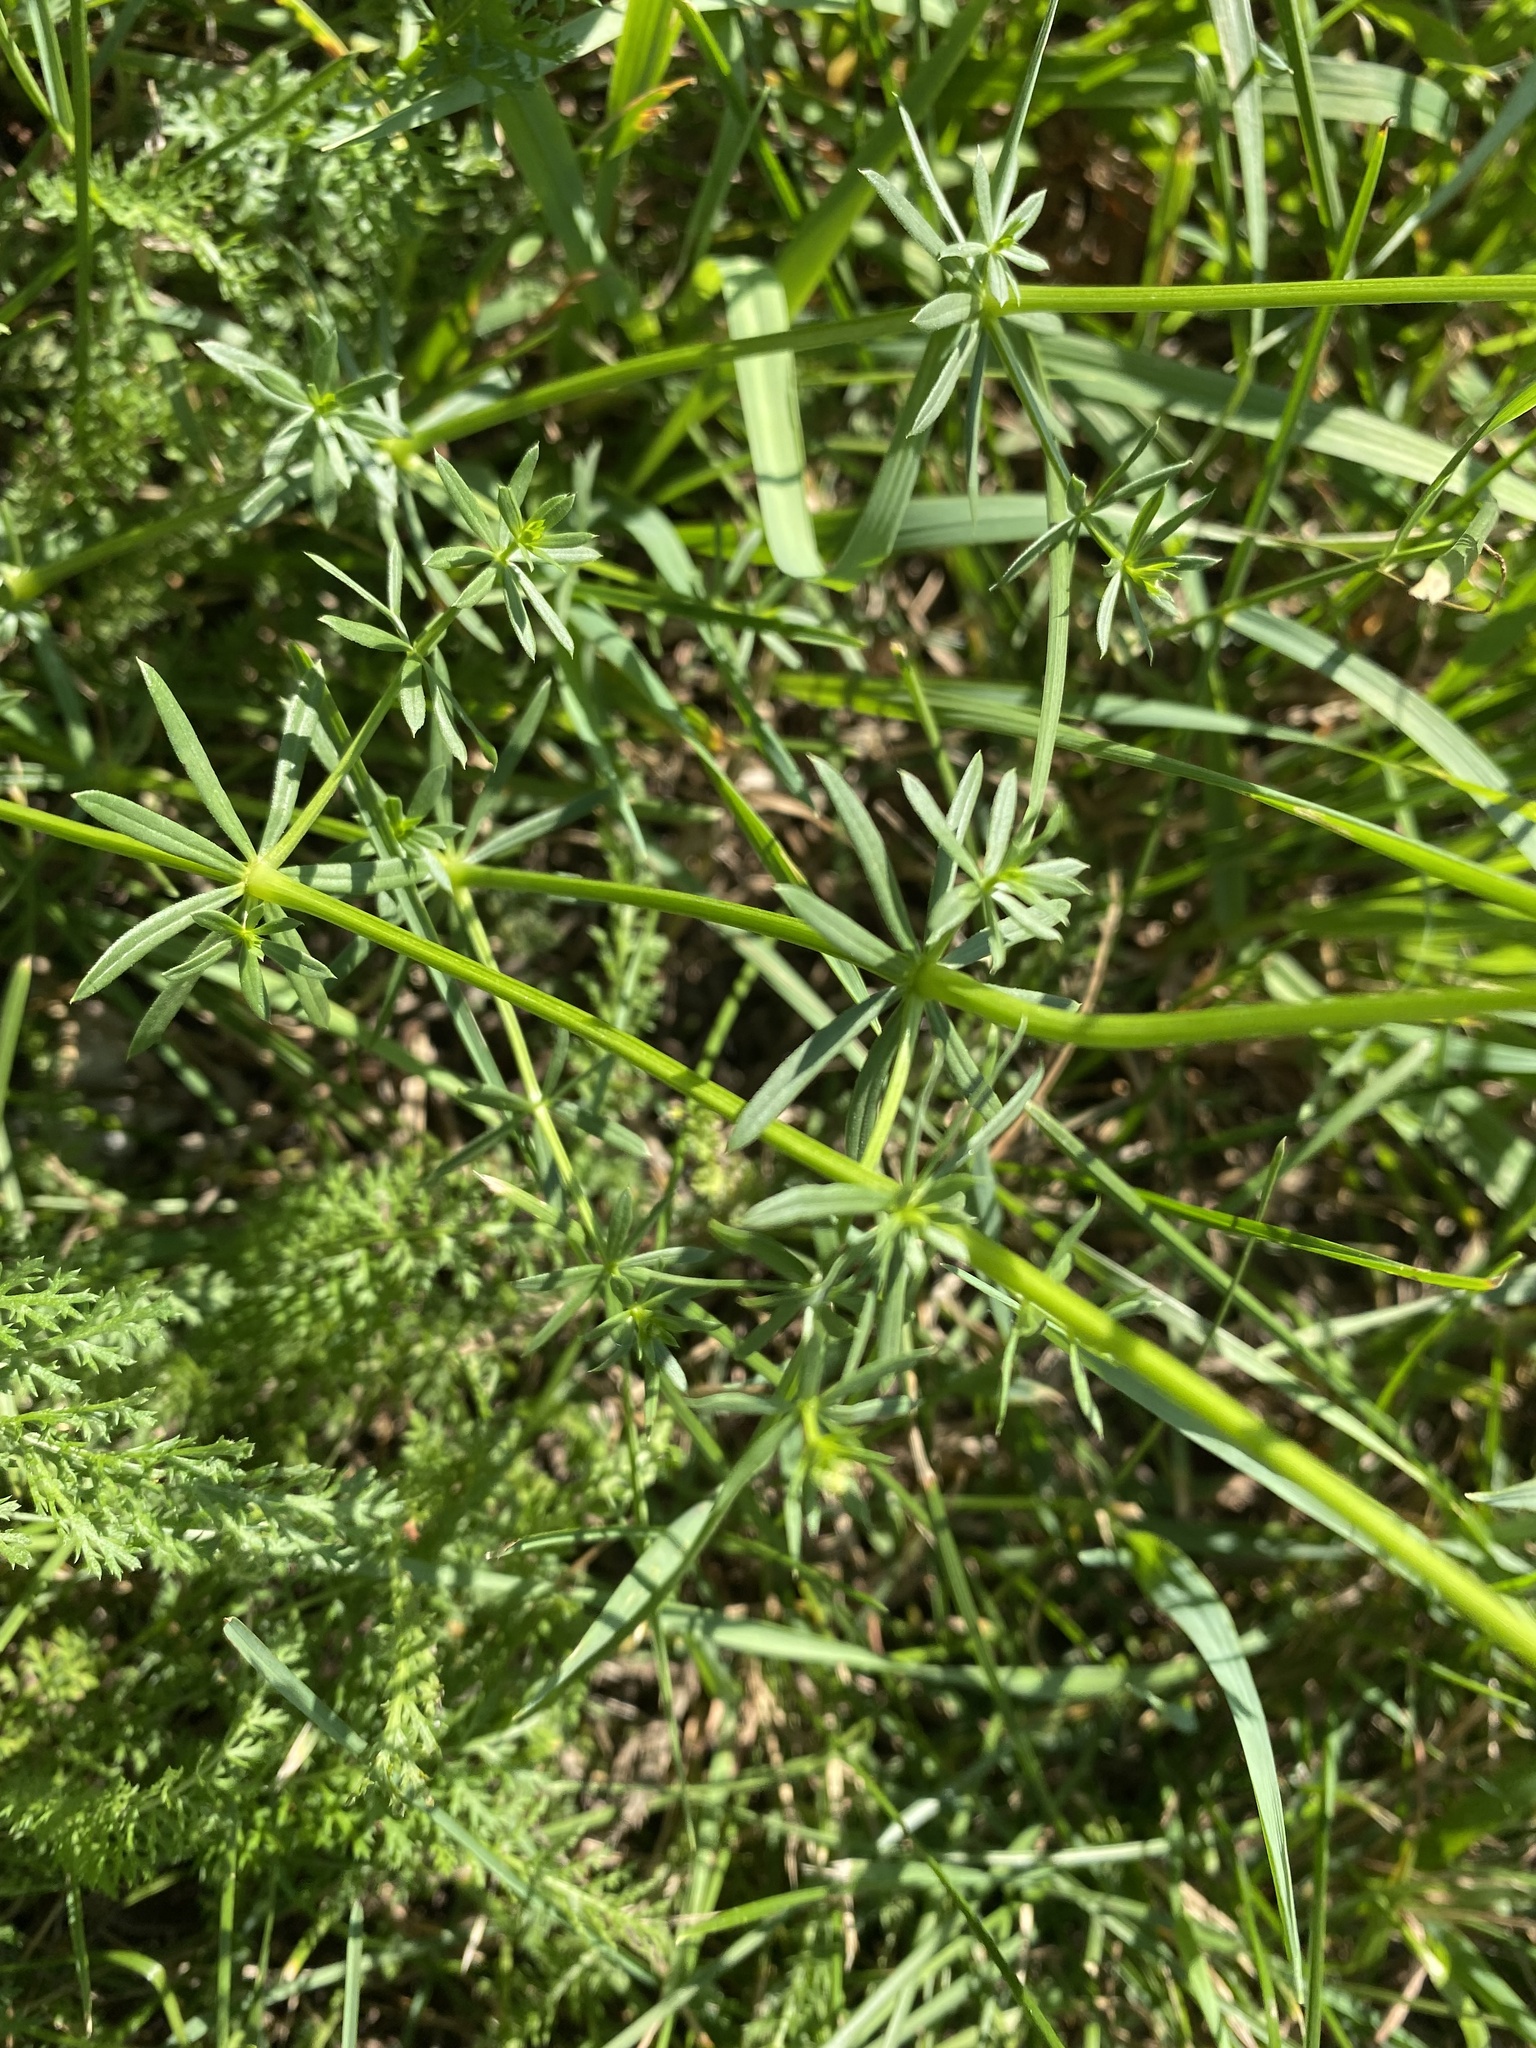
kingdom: Plantae
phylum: Tracheophyta
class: Magnoliopsida
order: Gentianales
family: Rubiaceae
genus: Galium
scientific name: Galium mollugo
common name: Hedge bedstraw
